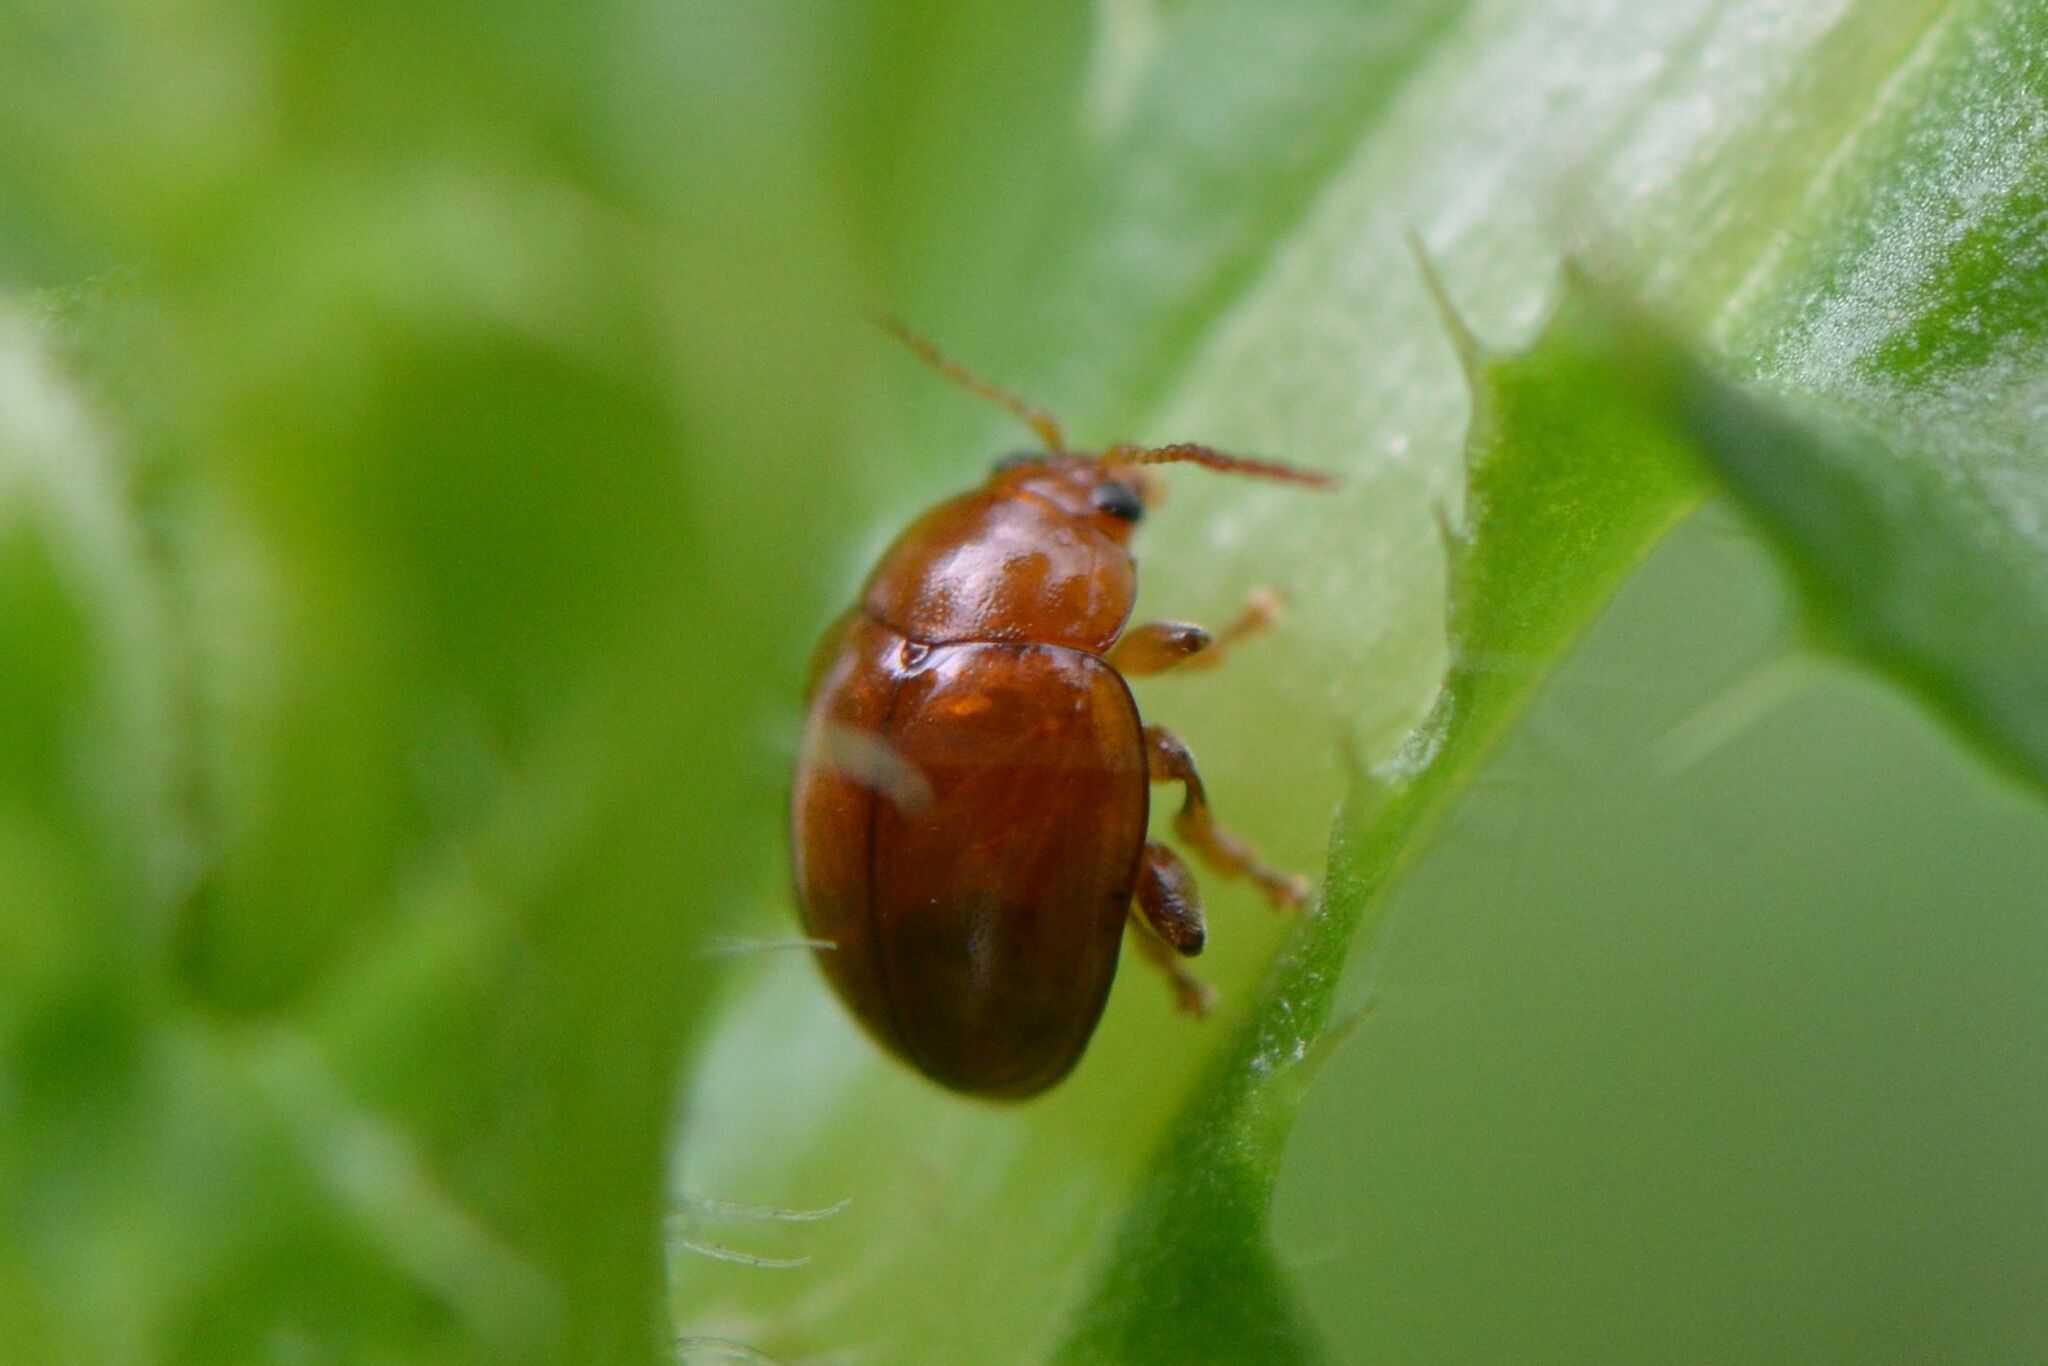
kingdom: Animalia
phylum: Arthropoda
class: Insecta
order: Coleoptera
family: Chrysomelidae
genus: Pistosia
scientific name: Pistosia testacea
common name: Leaf beetle
